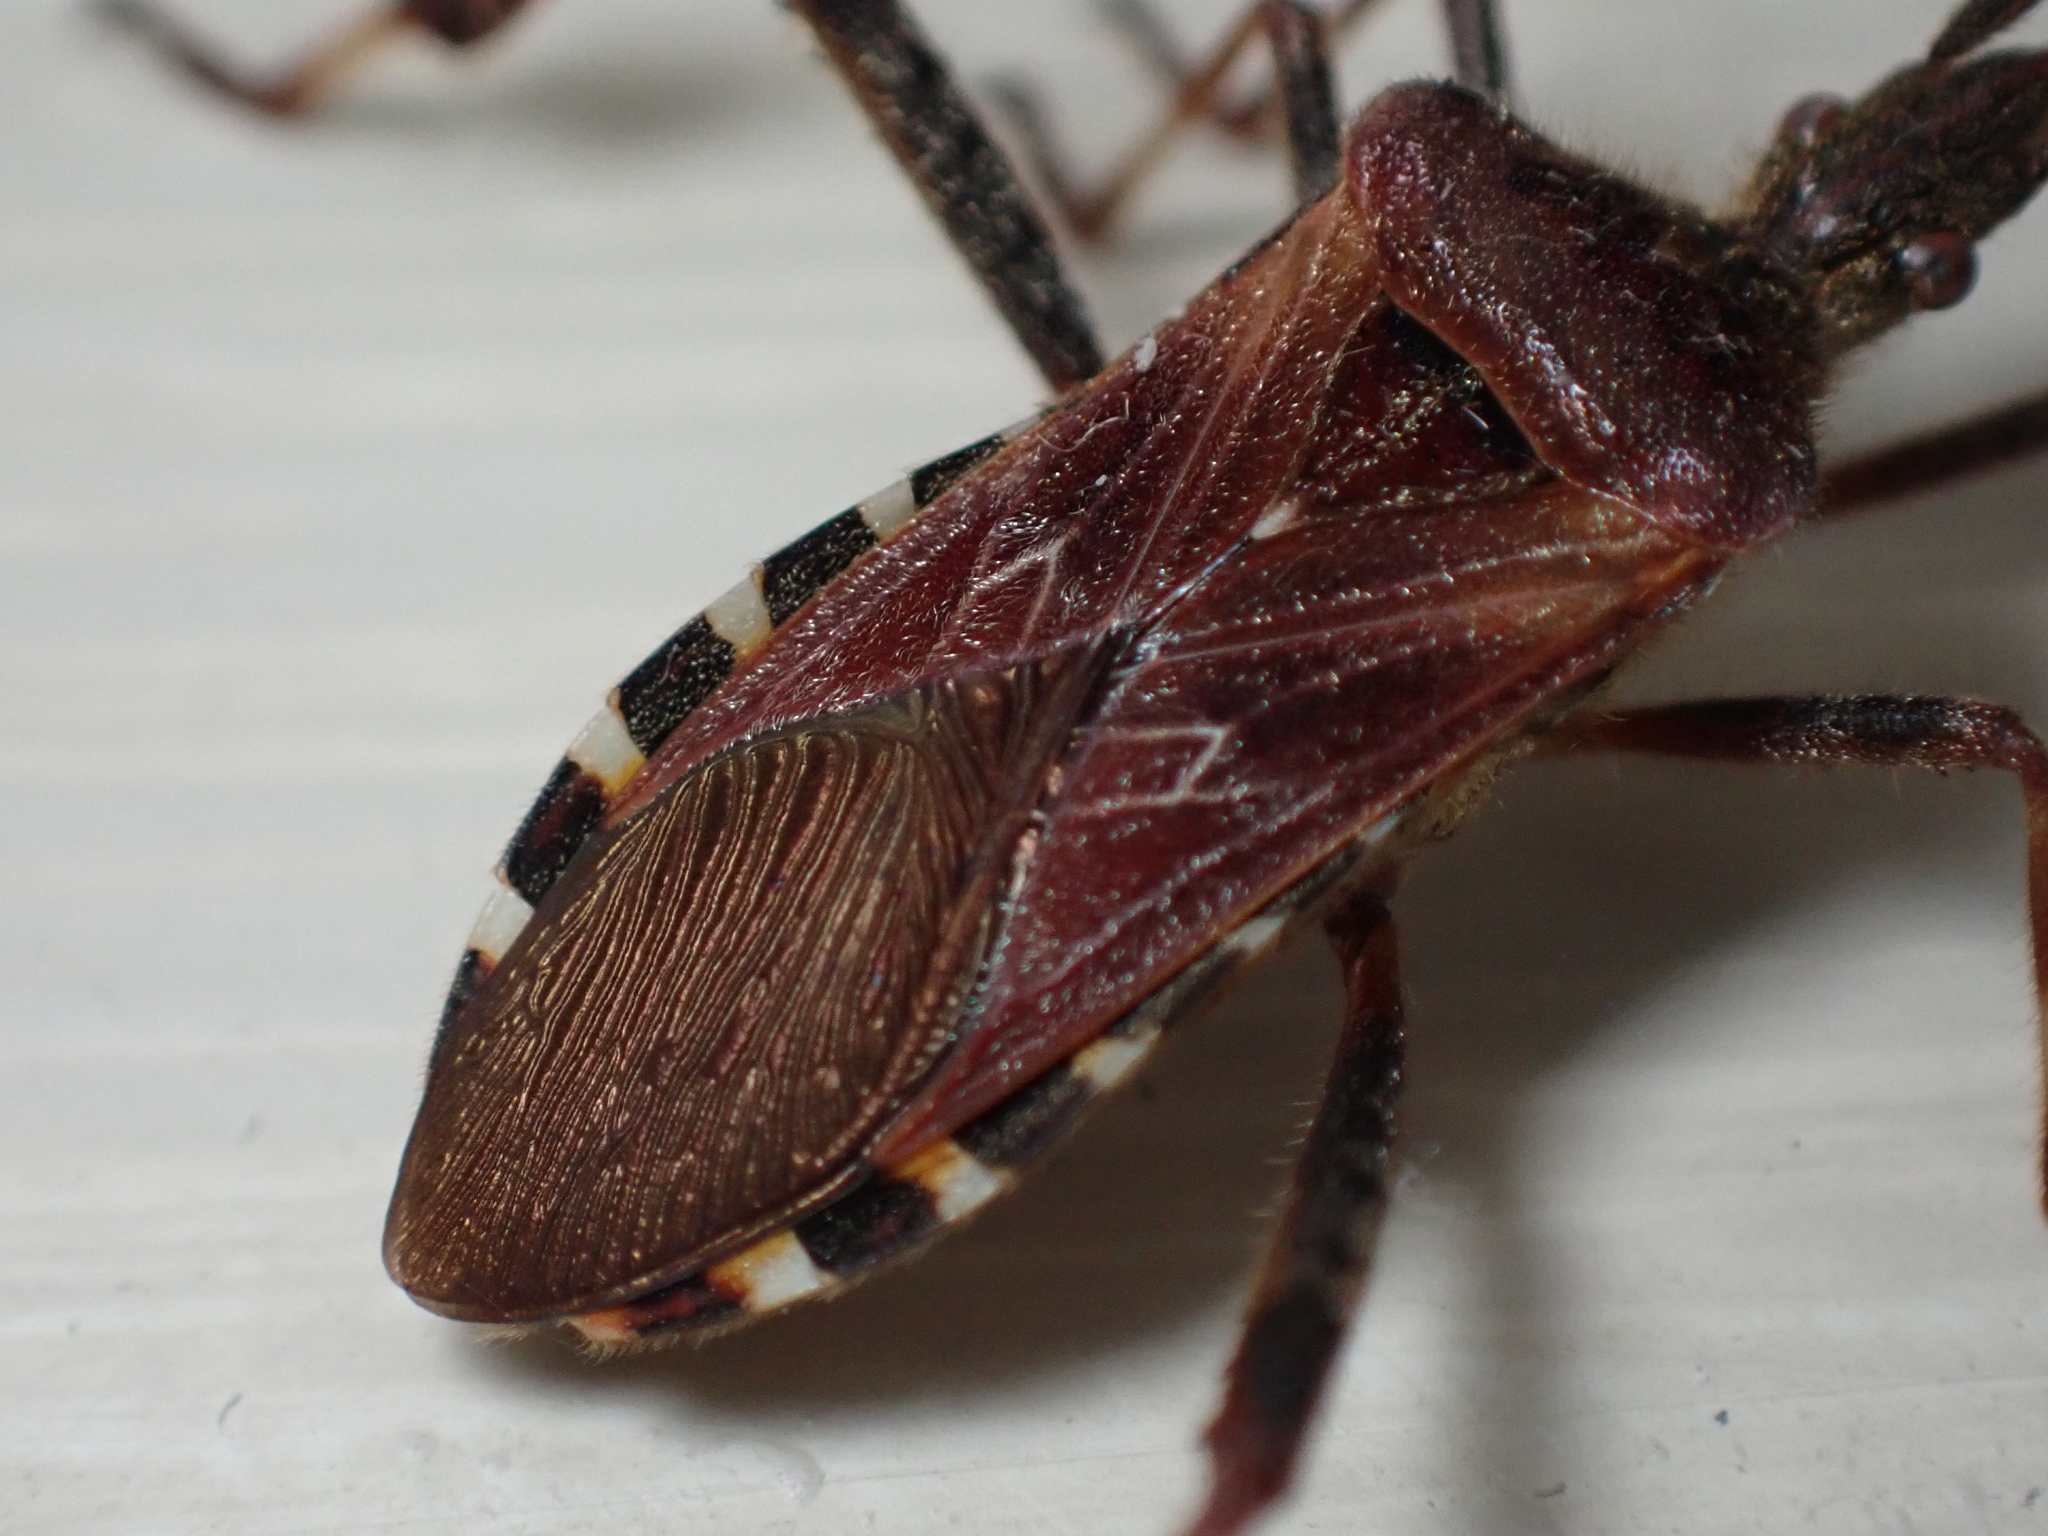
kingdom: Animalia
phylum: Arthropoda
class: Insecta
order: Hemiptera
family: Coreidae
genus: Leptoglossus
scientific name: Leptoglossus occidentalis
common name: Western conifer-seed bug
